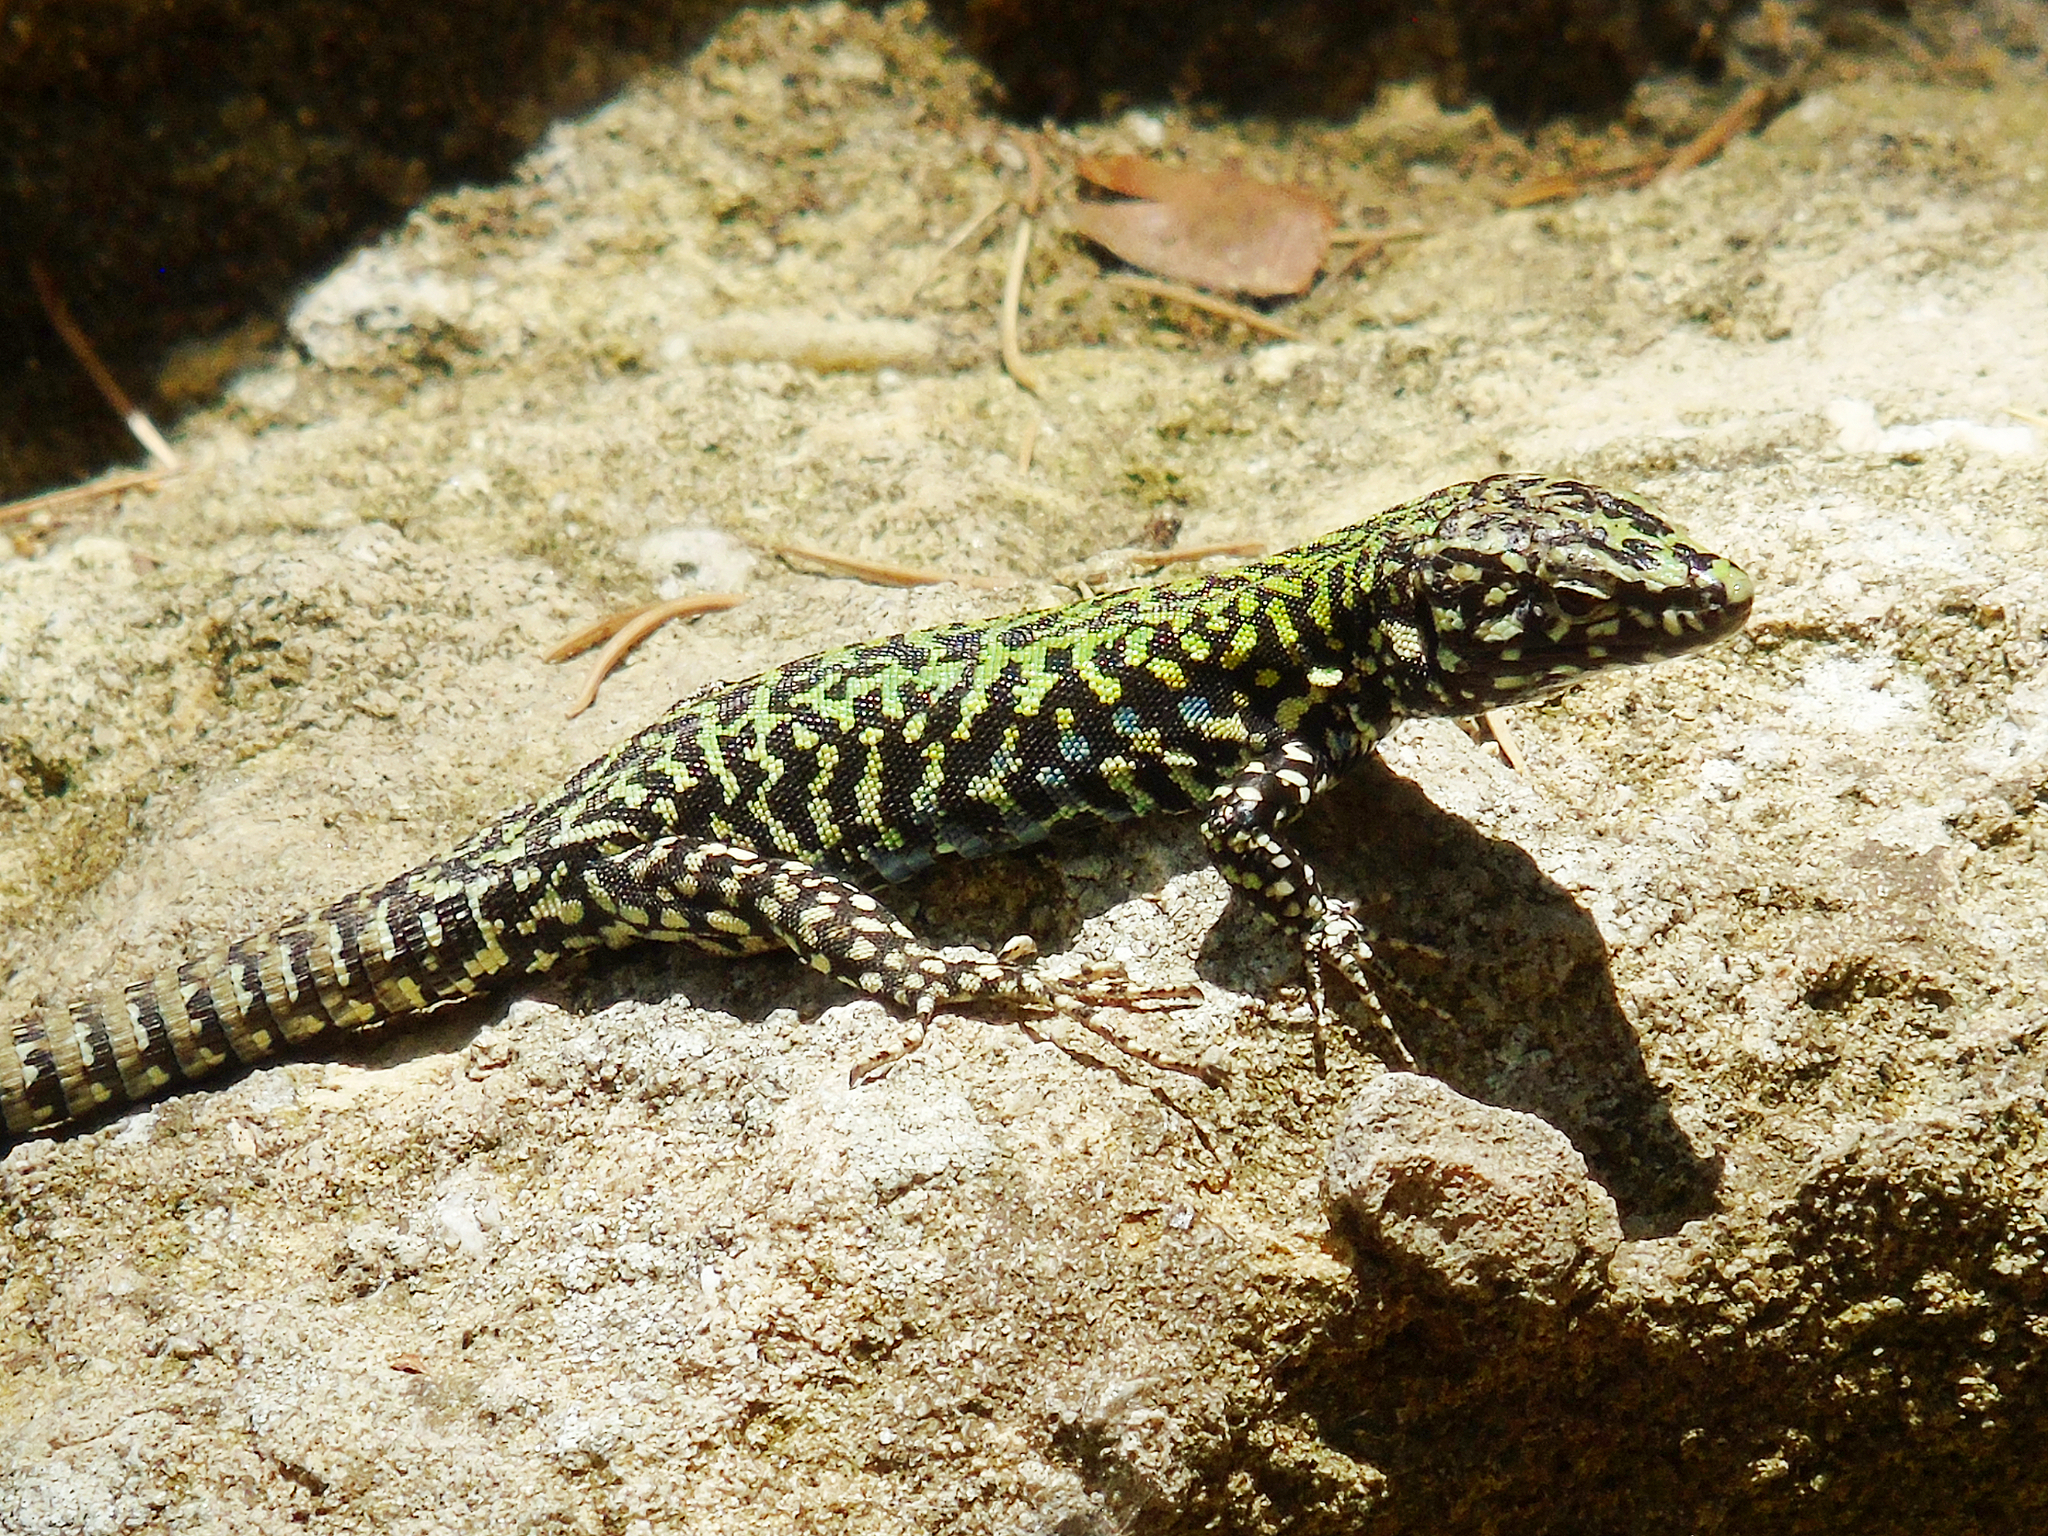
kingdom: Animalia
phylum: Chordata
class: Squamata
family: Lacertidae
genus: Podarcis
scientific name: Podarcis muralis
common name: Common wall lizard
